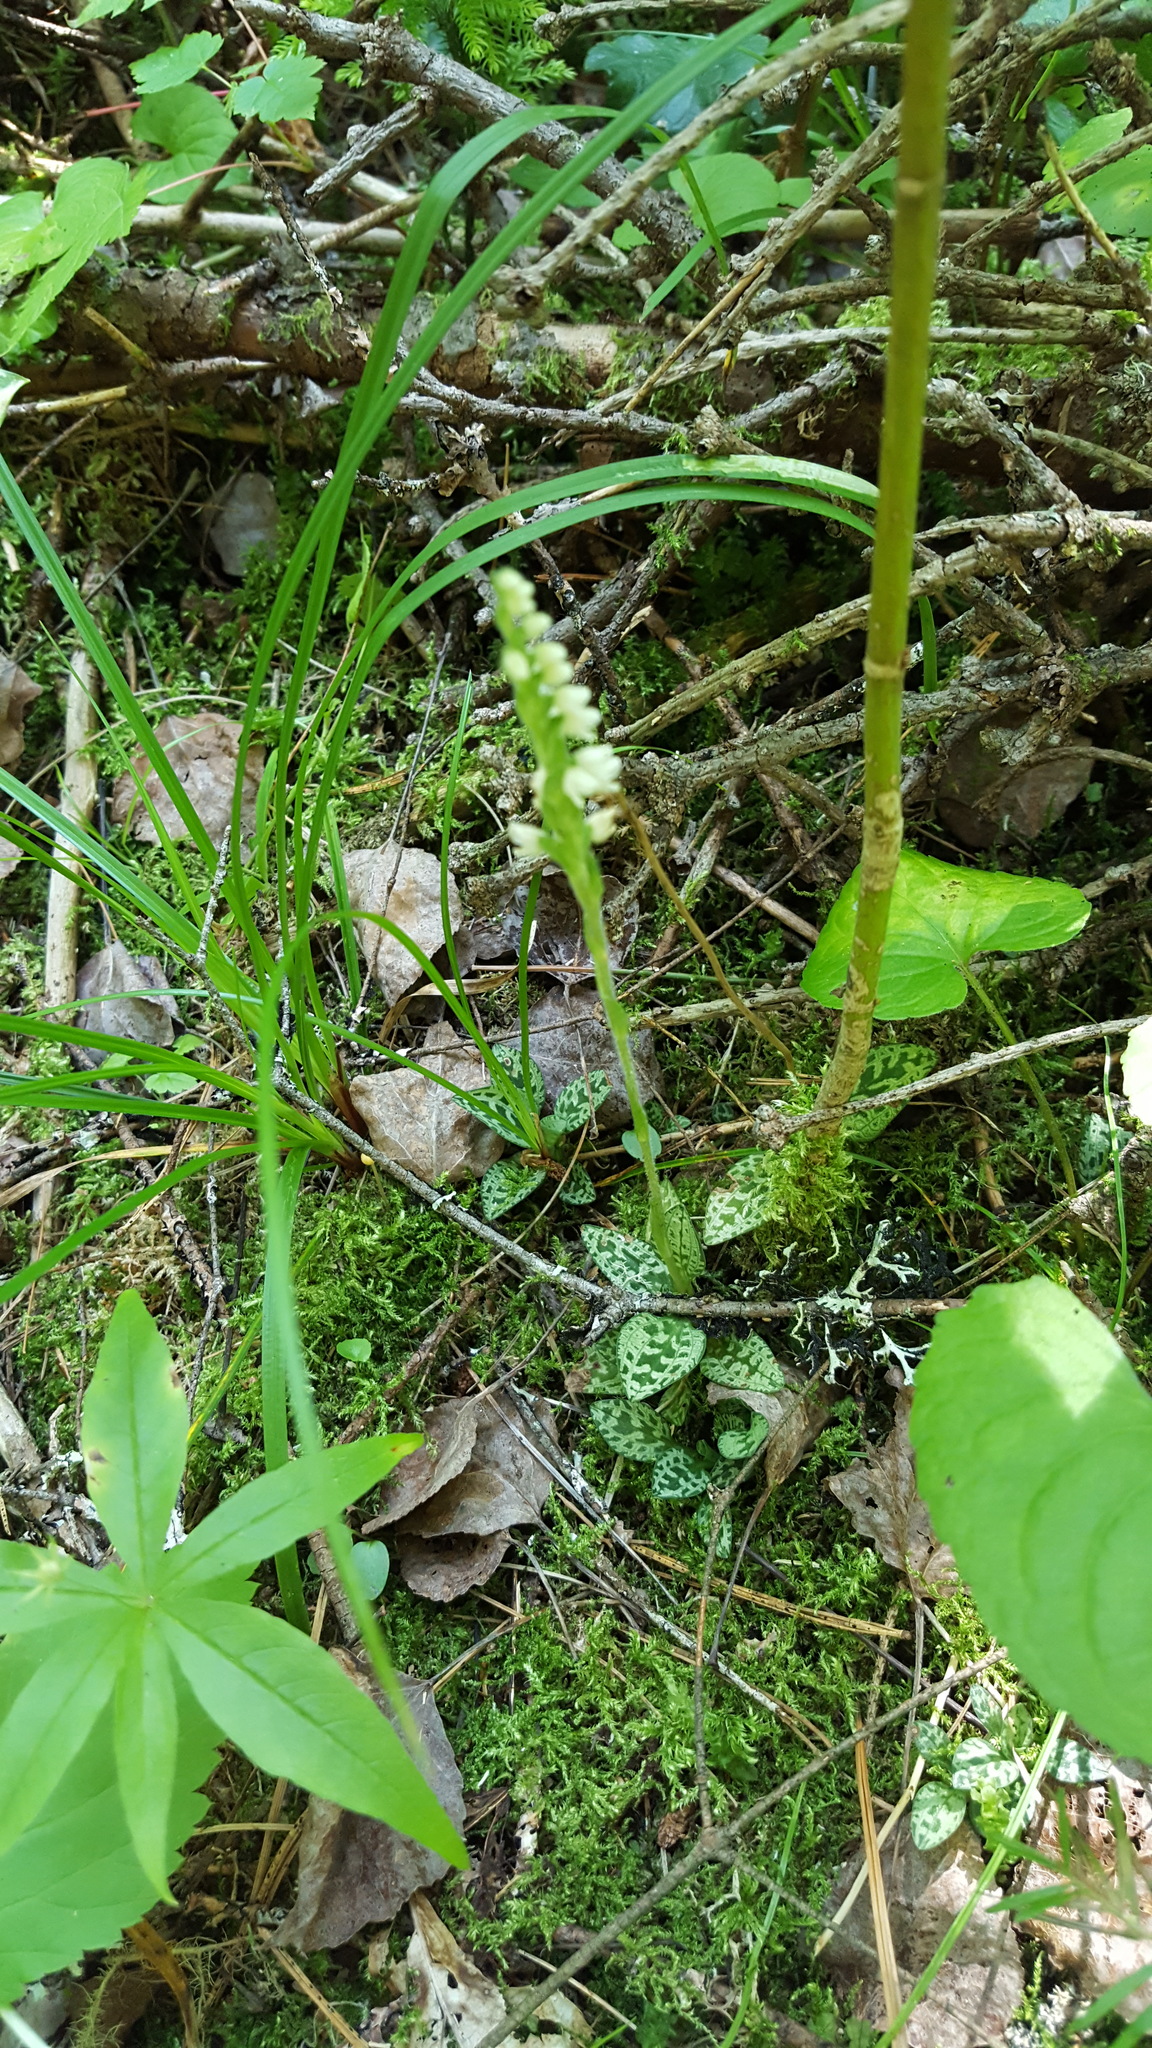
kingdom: Plantae
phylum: Tracheophyta
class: Liliopsida
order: Asparagales
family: Orchidaceae
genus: Goodyera
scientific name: Goodyera repens
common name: Creeping lady's-tresses
